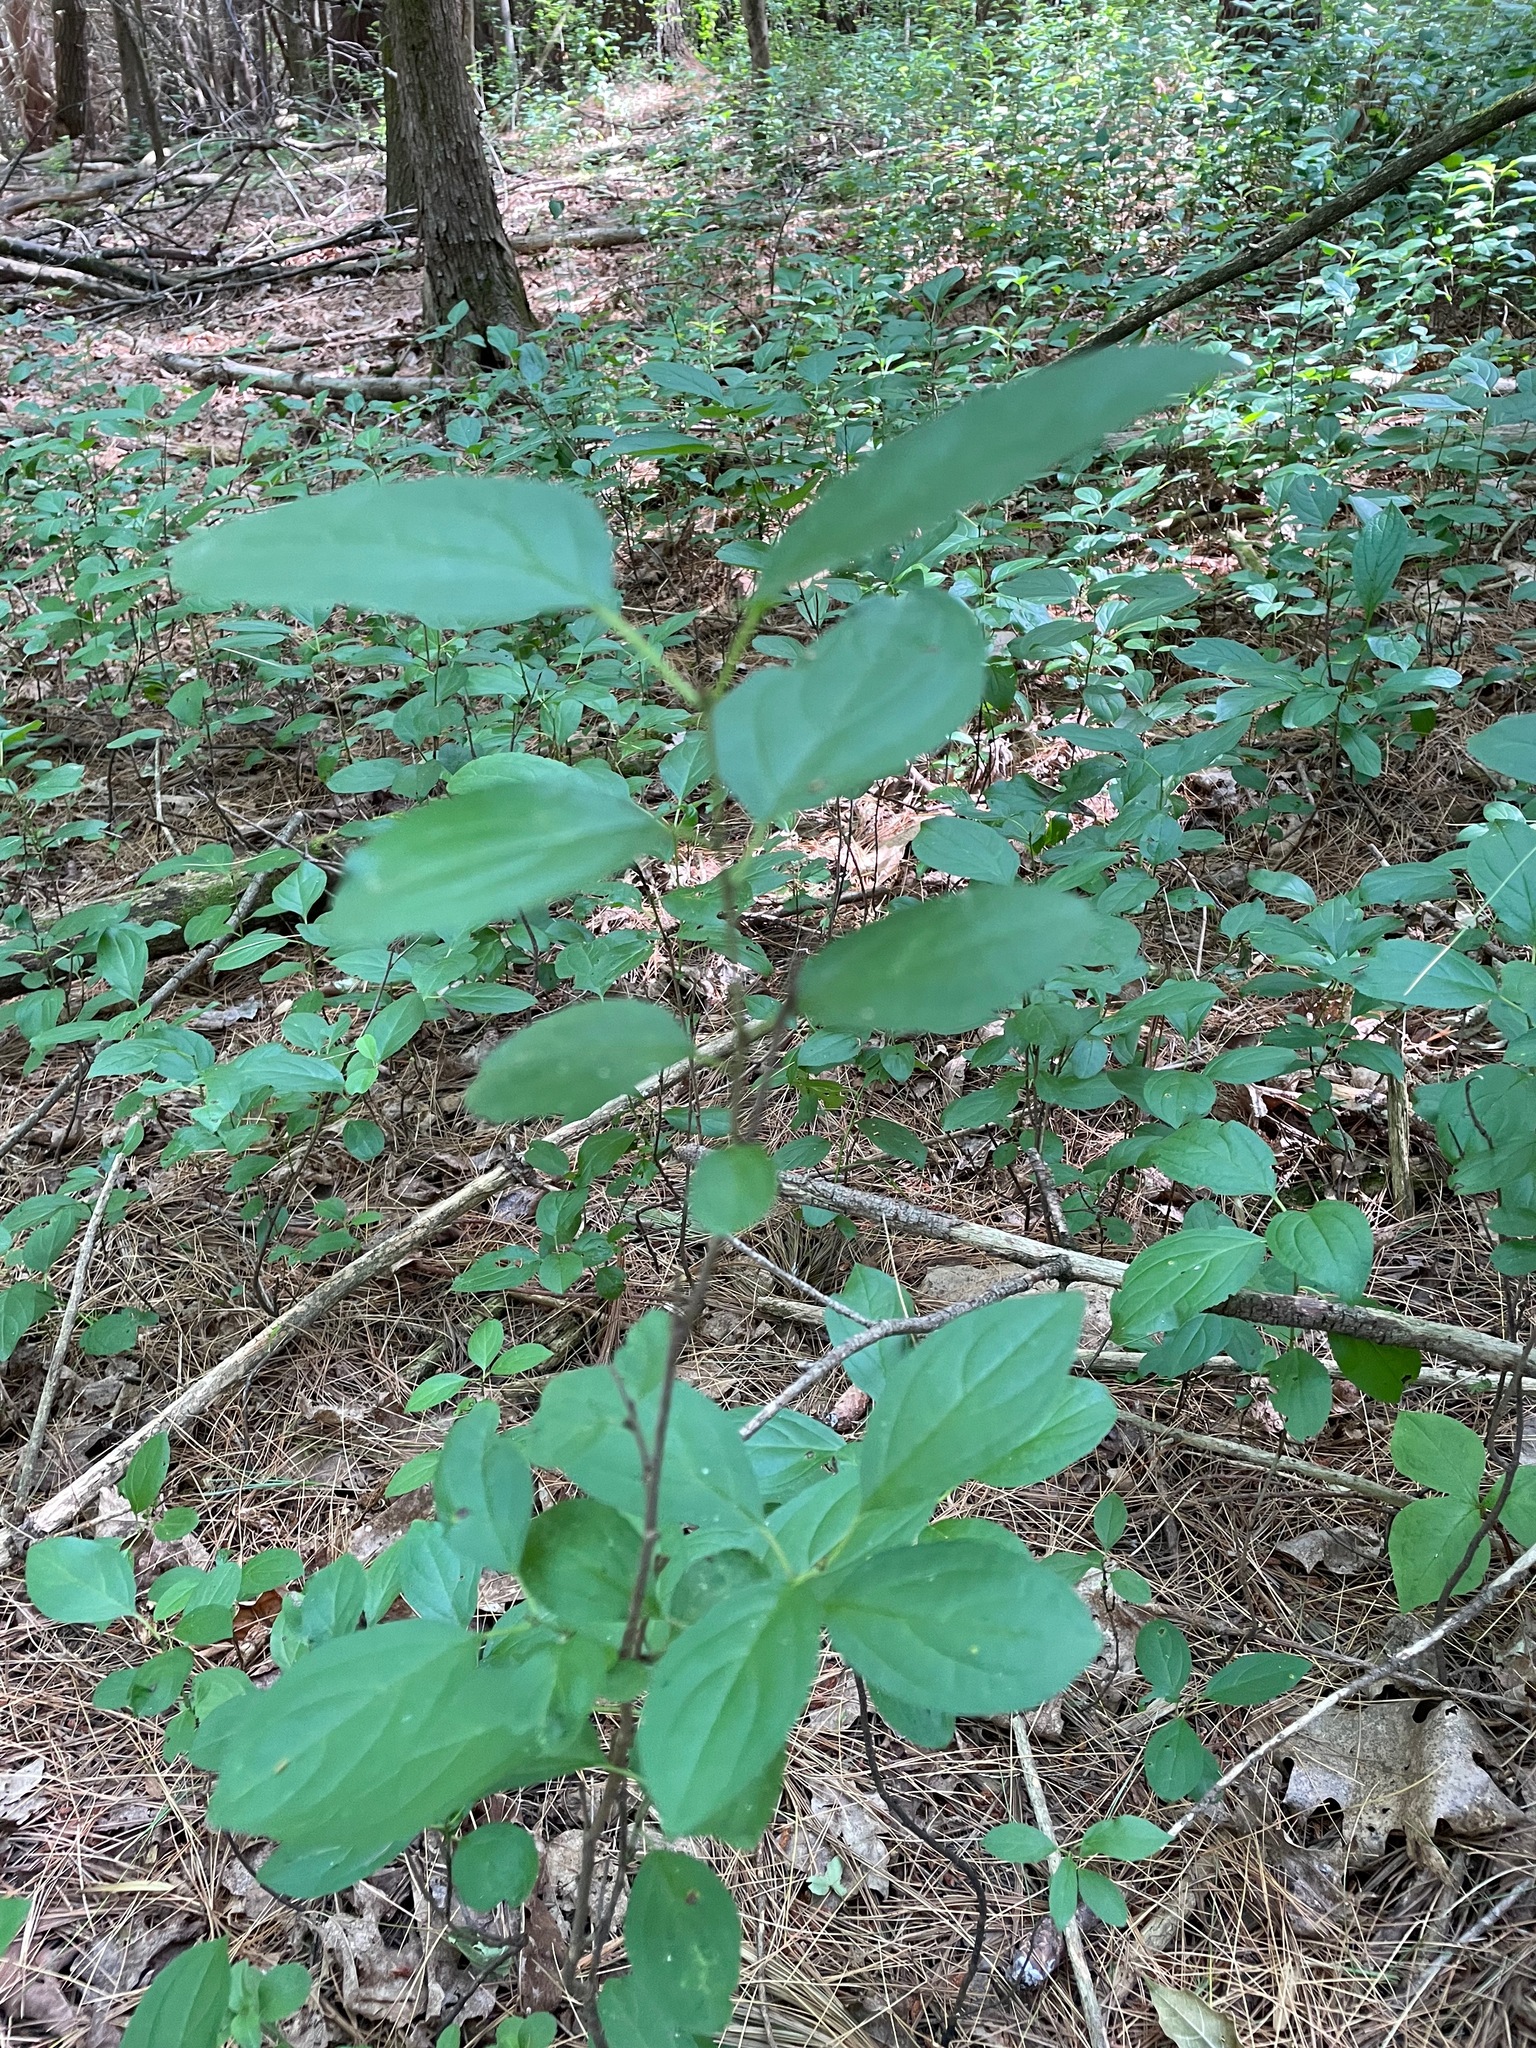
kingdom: Plantae
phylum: Tracheophyta
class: Magnoliopsida
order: Rosales
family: Rhamnaceae
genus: Rhamnus
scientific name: Rhamnus cathartica
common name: Common buckthorn
